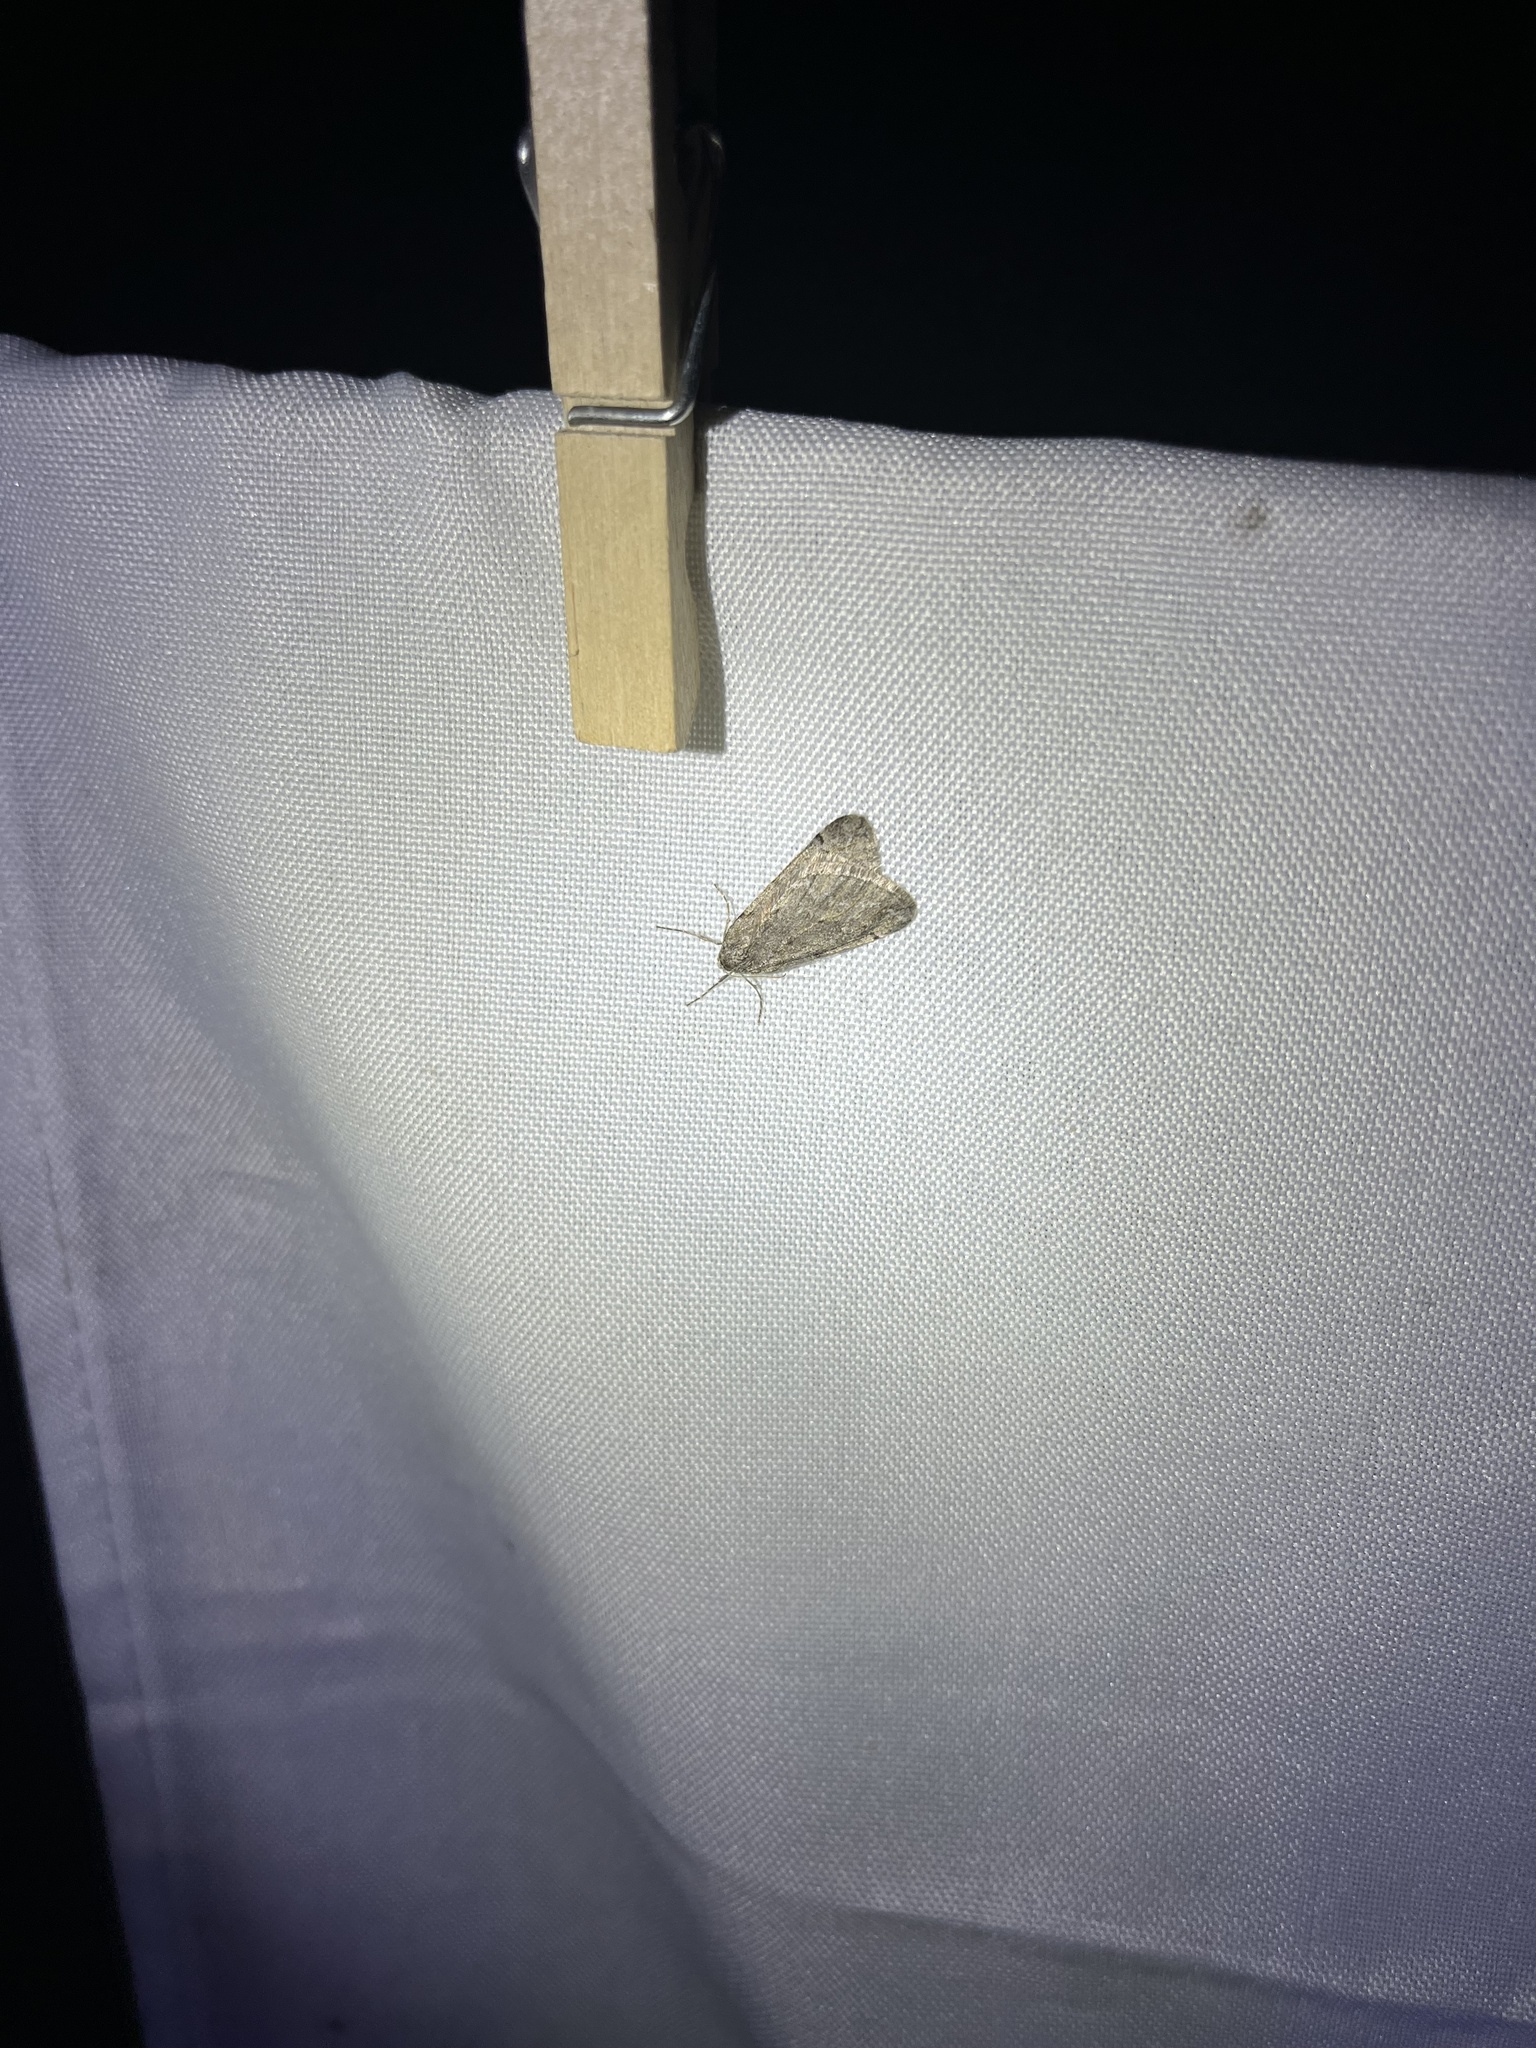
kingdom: Animalia
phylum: Arthropoda
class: Insecta
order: Lepidoptera
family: Geometridae
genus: Paleacrita
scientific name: Paleacrita vernata
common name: Spring cankerworm
